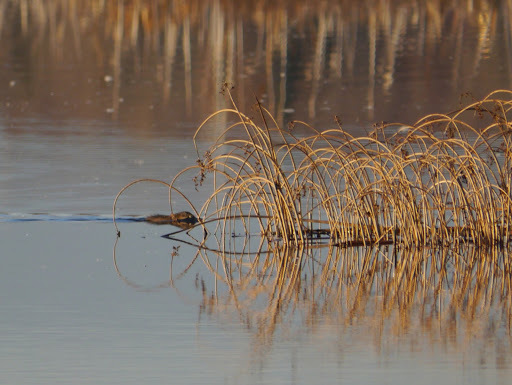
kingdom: Animalia
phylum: Chordata
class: Mammalia
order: Rodentia
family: Cricetidae
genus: Ondatra
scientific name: Ondatra zibethicus
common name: Muskrat
